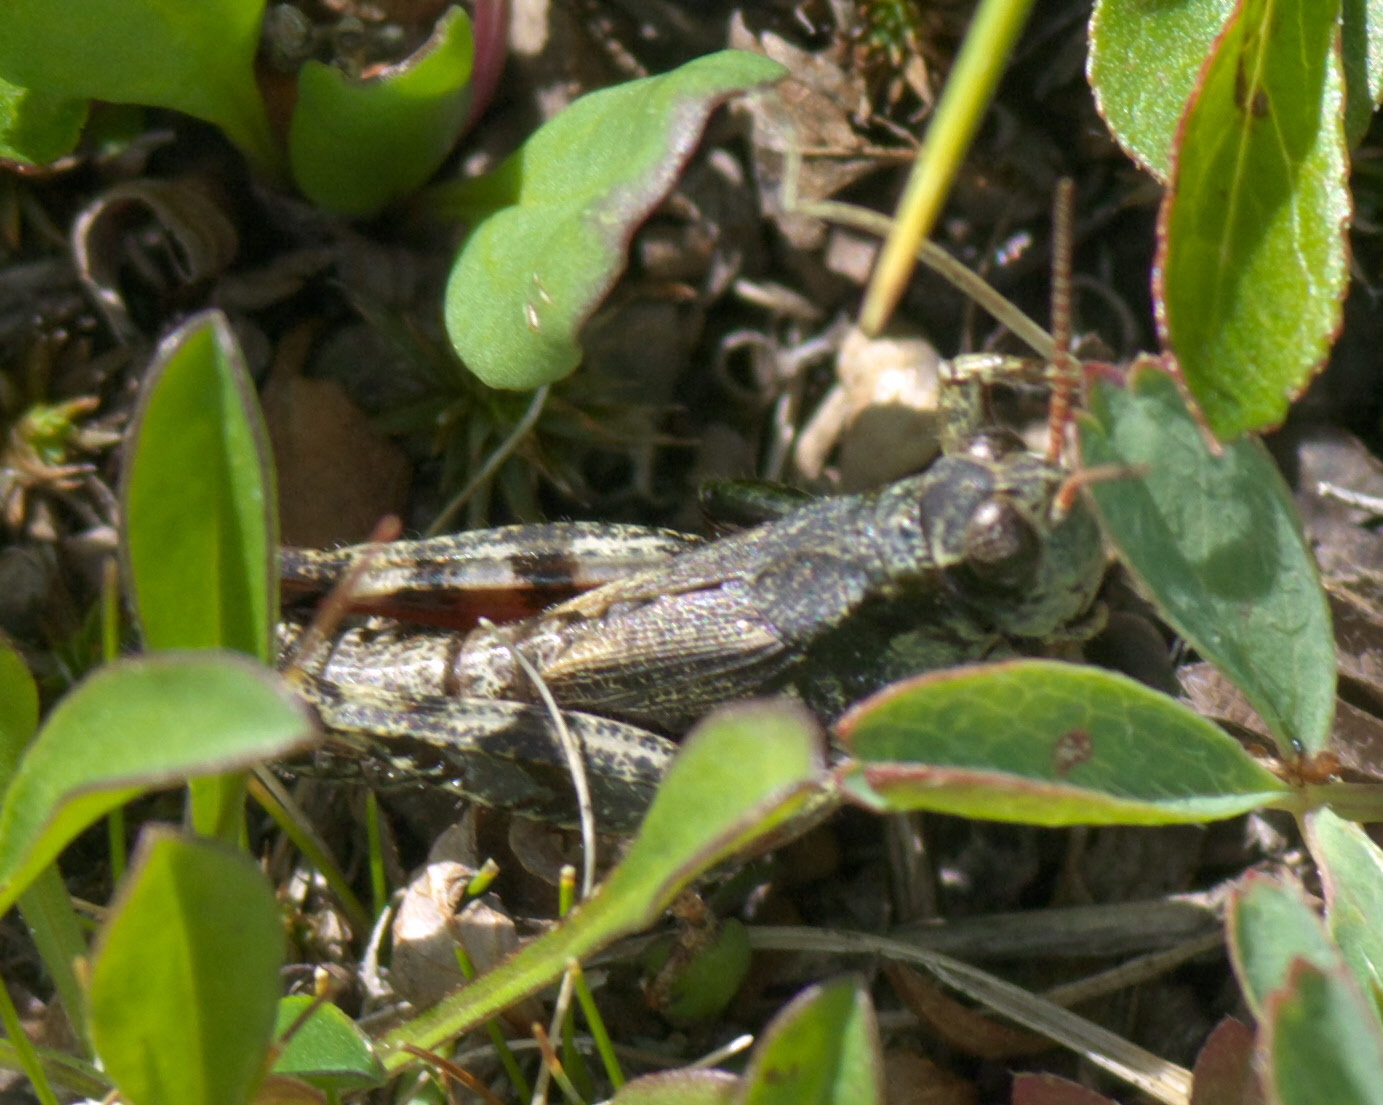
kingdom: Animalia
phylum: Arthropoda
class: Insecta
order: Orthoptera
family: Acrididae
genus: Melanoplus
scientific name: Melanoplus gothicus
